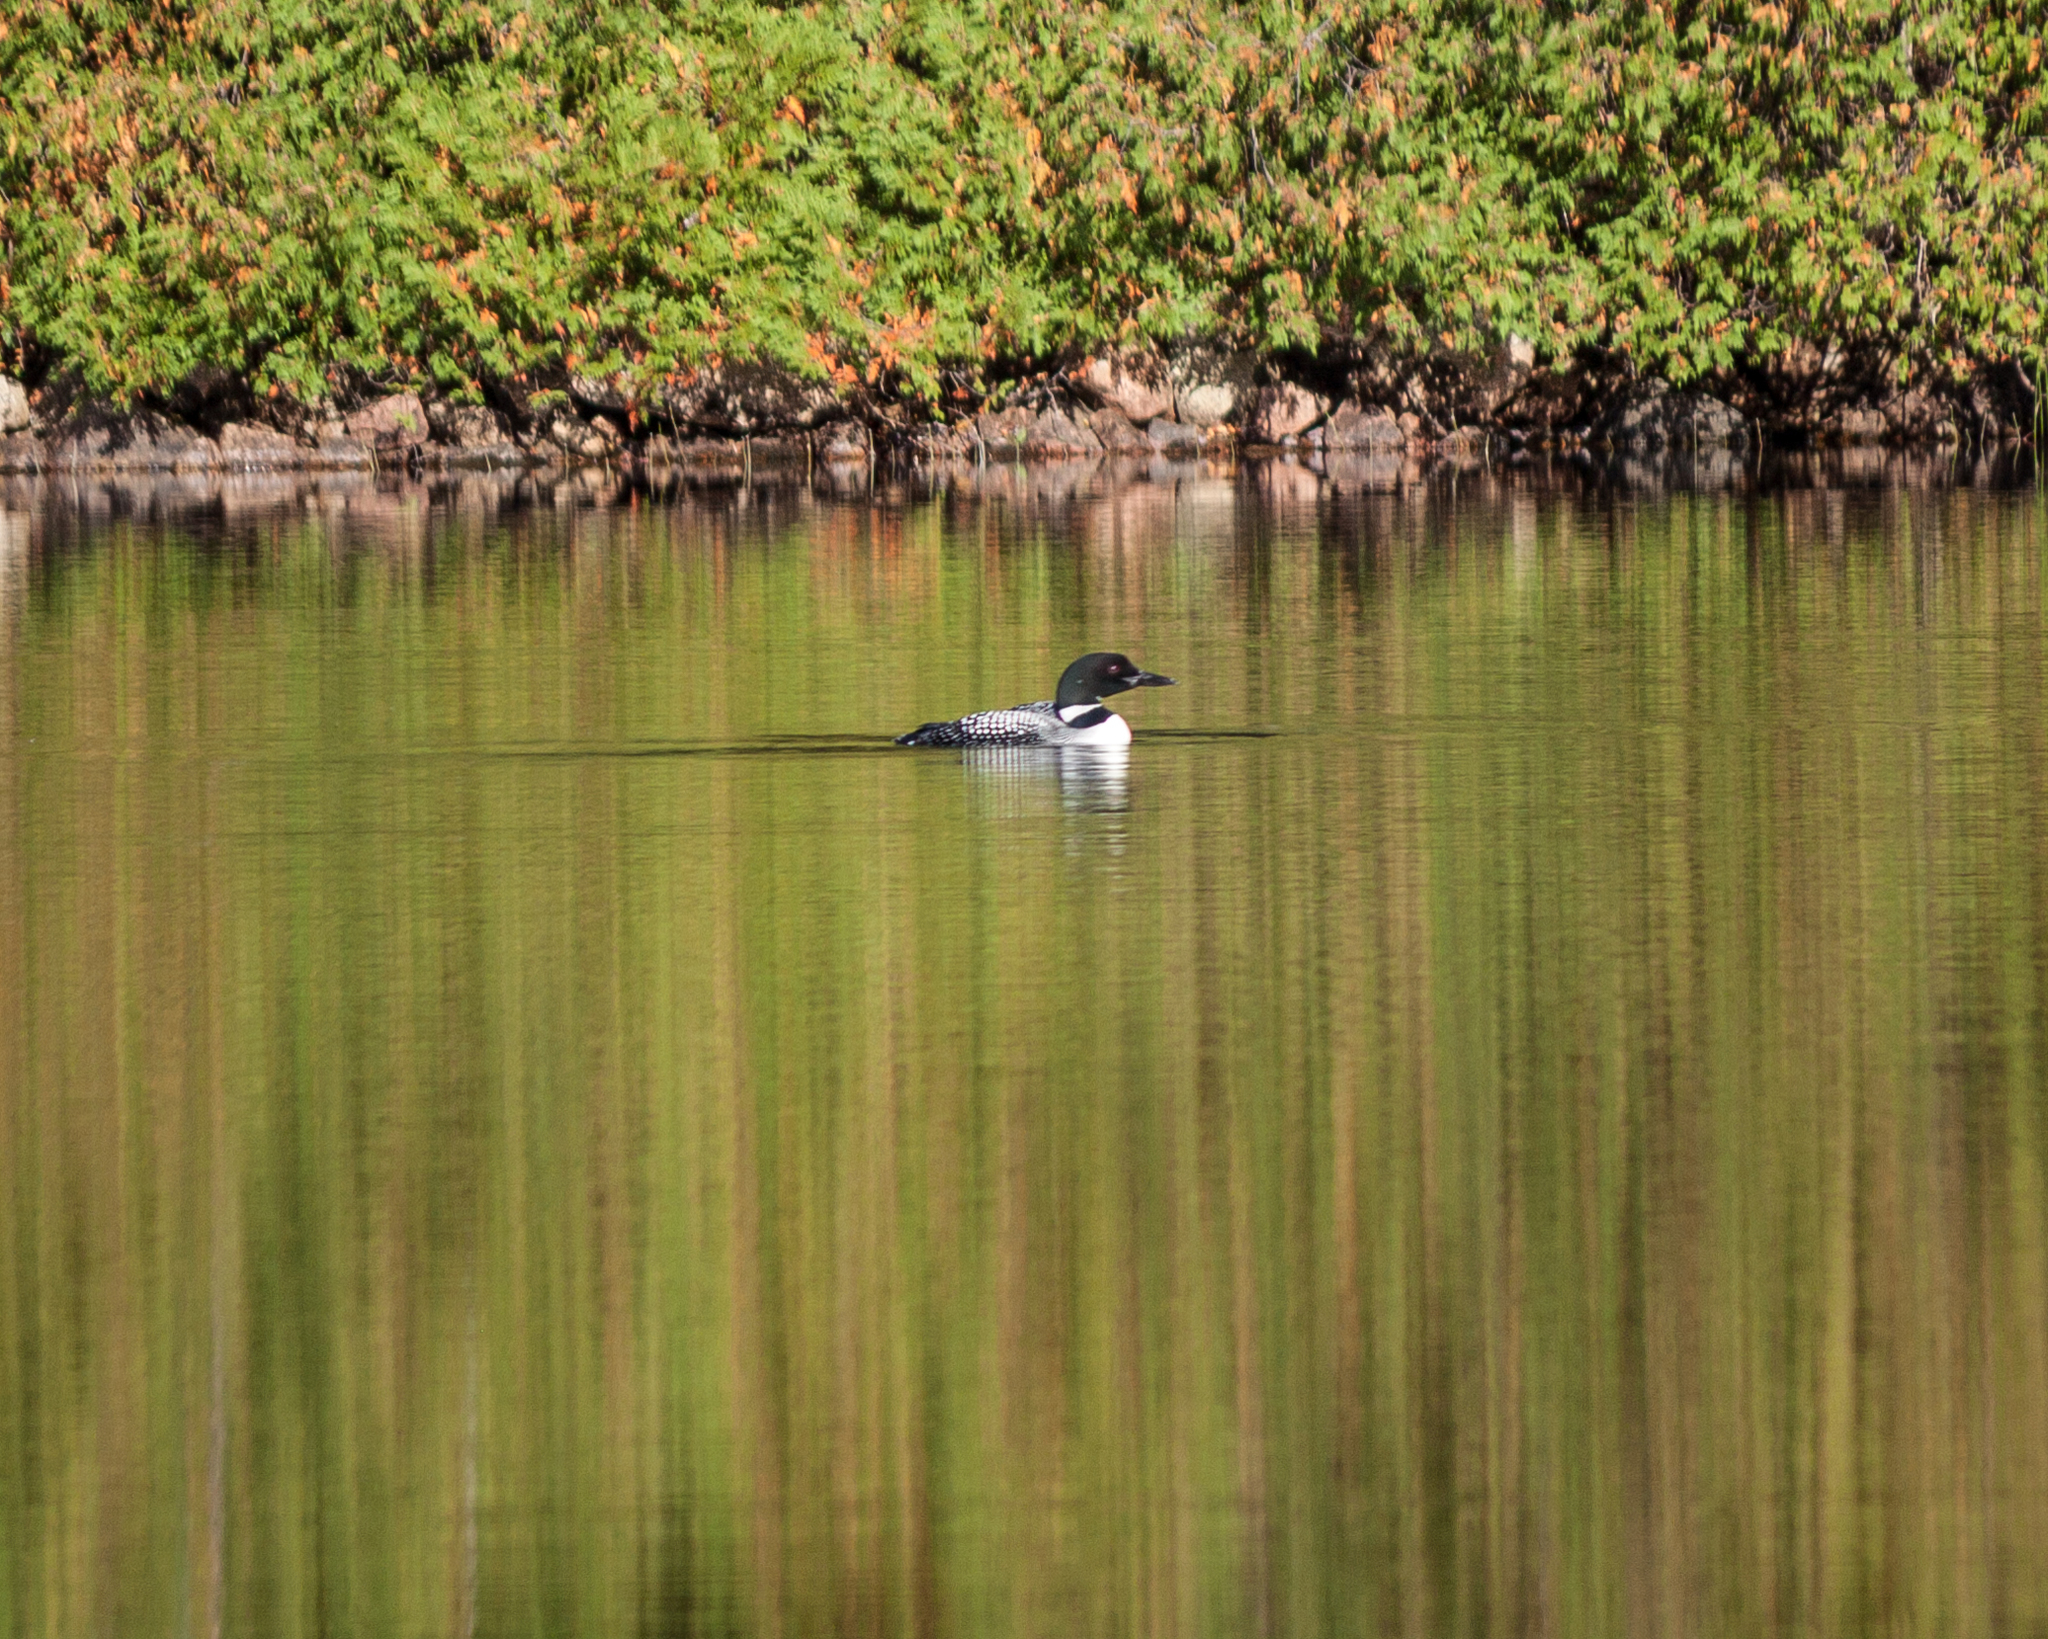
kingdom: Animalia
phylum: Chordata
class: Aves
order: Gaviiformes
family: Gaviidae
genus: Gavia
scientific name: Gavia immer
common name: Common loon
